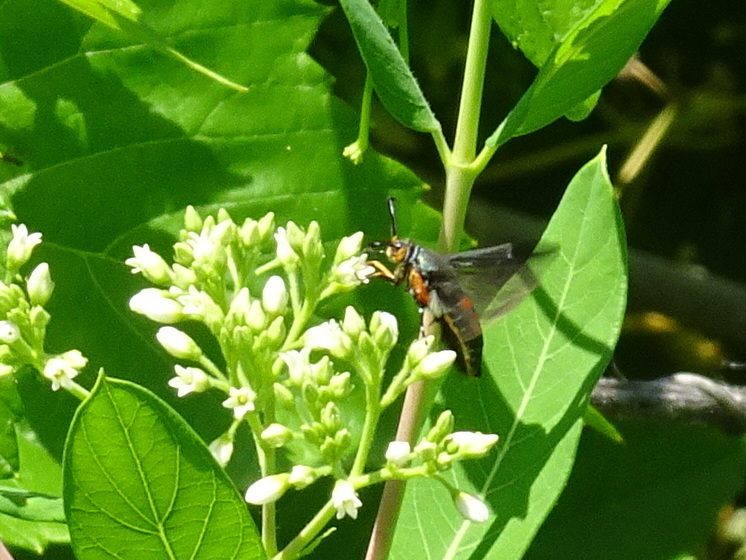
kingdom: Animalia
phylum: Arthropoda
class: Insecta
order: Lepidoptera
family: Sesiidae
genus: Eichlinia
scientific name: Eichlinia cucurbitae
